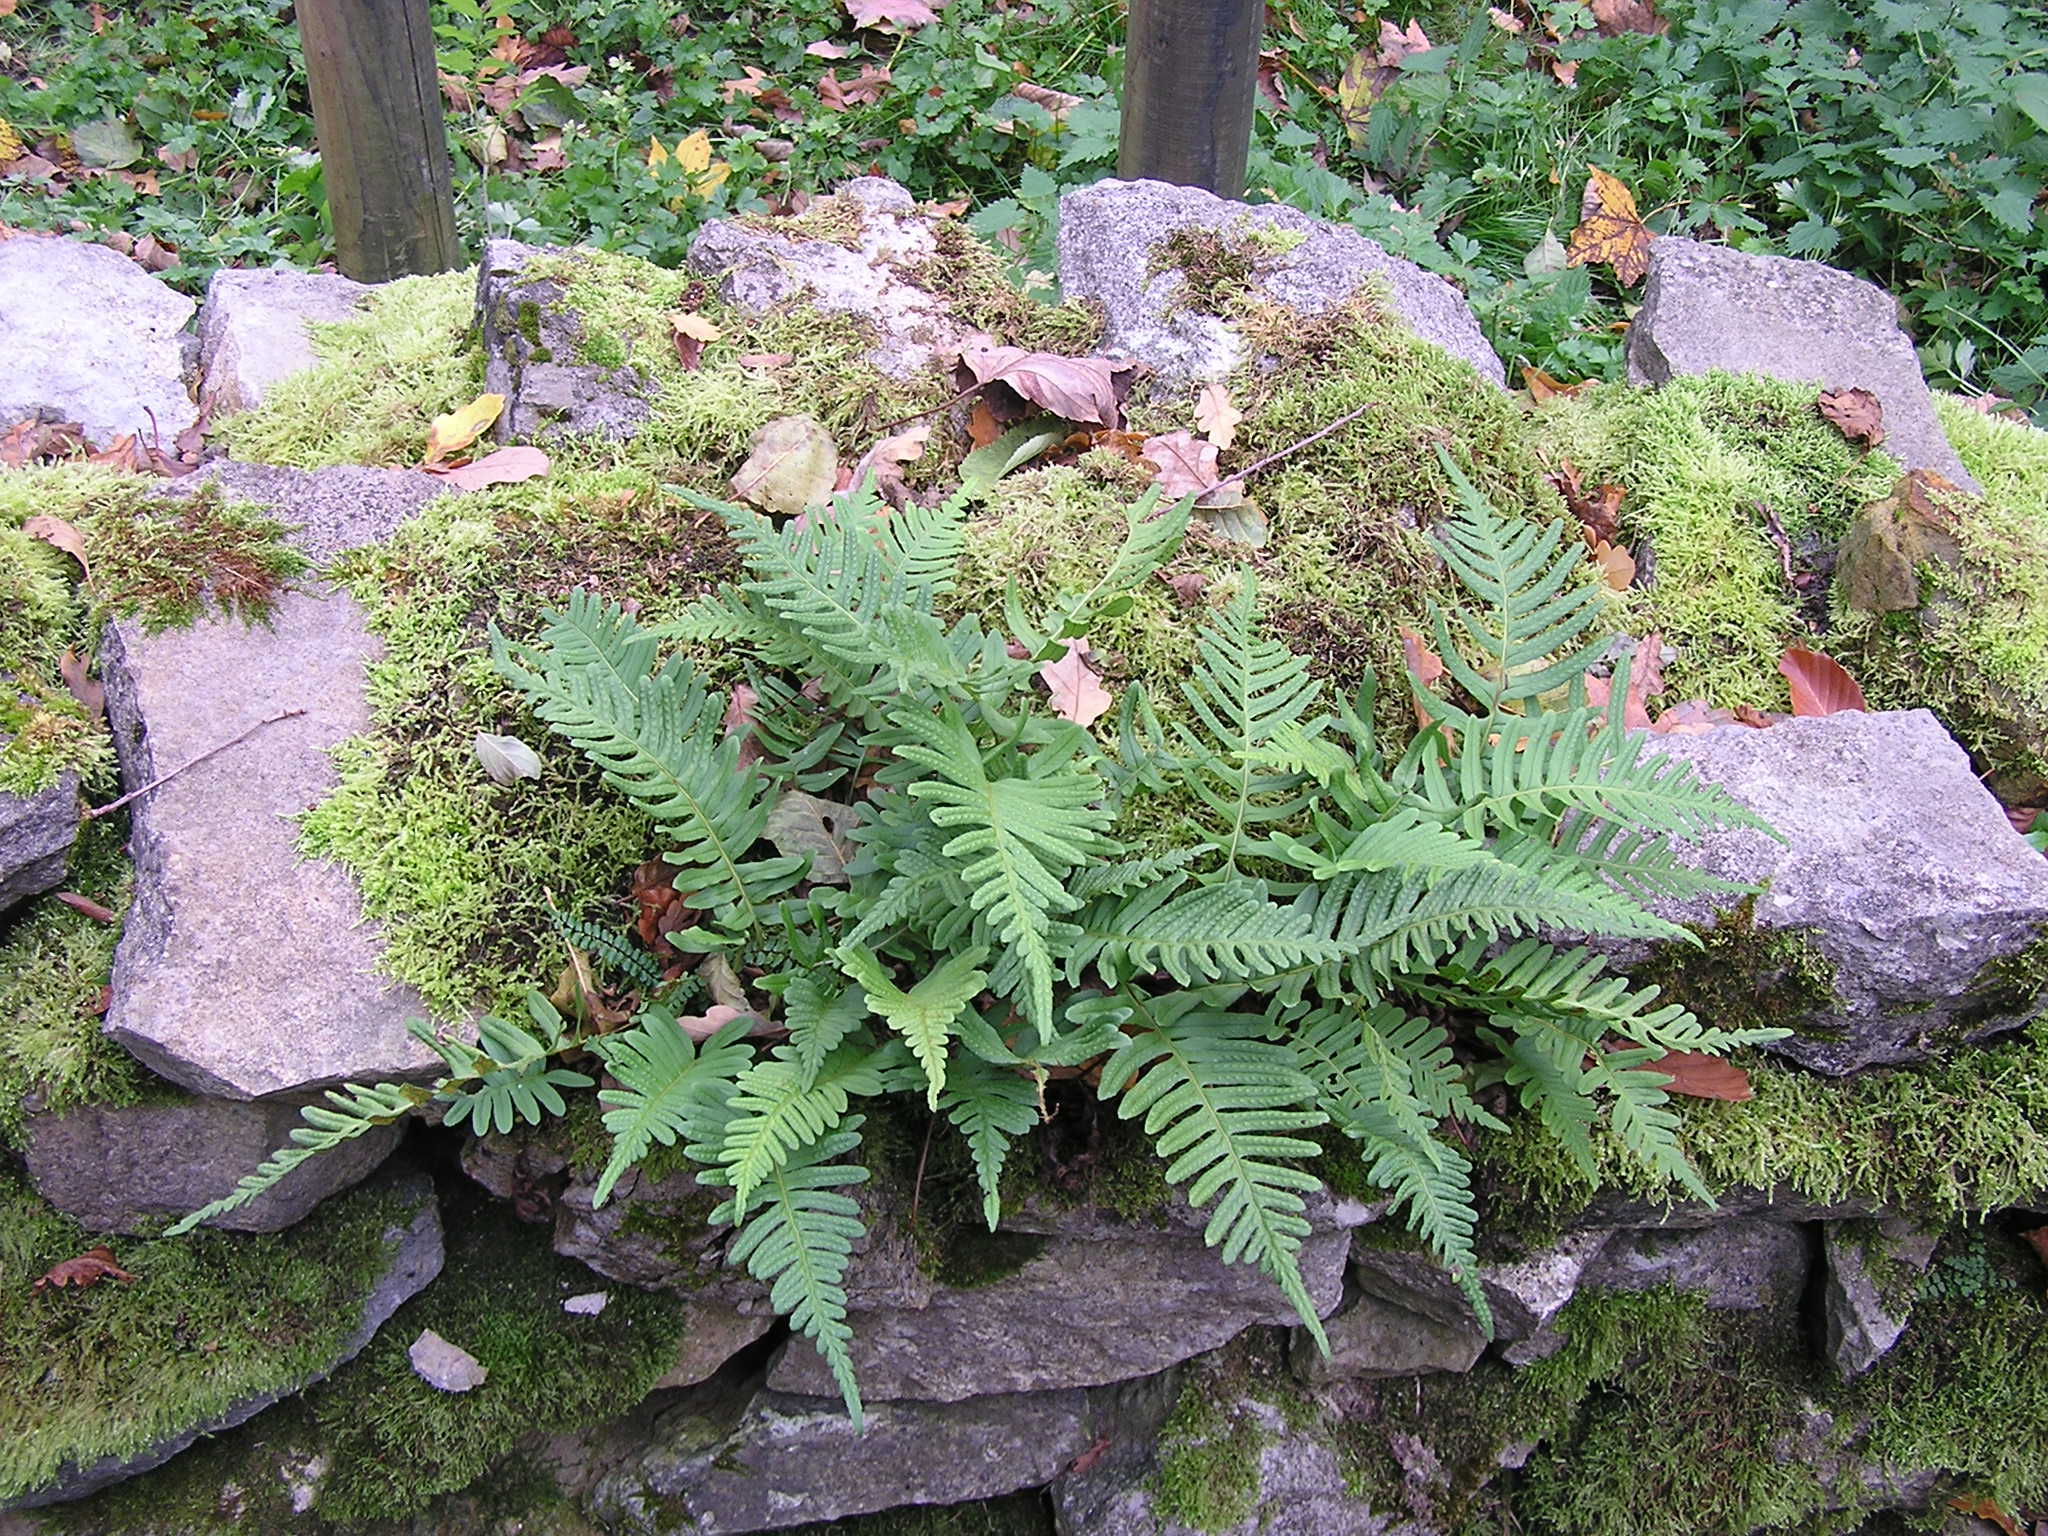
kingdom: Plantae
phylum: Tracheophyta
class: Polypodiopsida
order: Polypodiales
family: Polypodiaceae
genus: Polypodium
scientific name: Polypodium vulgare
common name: Common polypody
